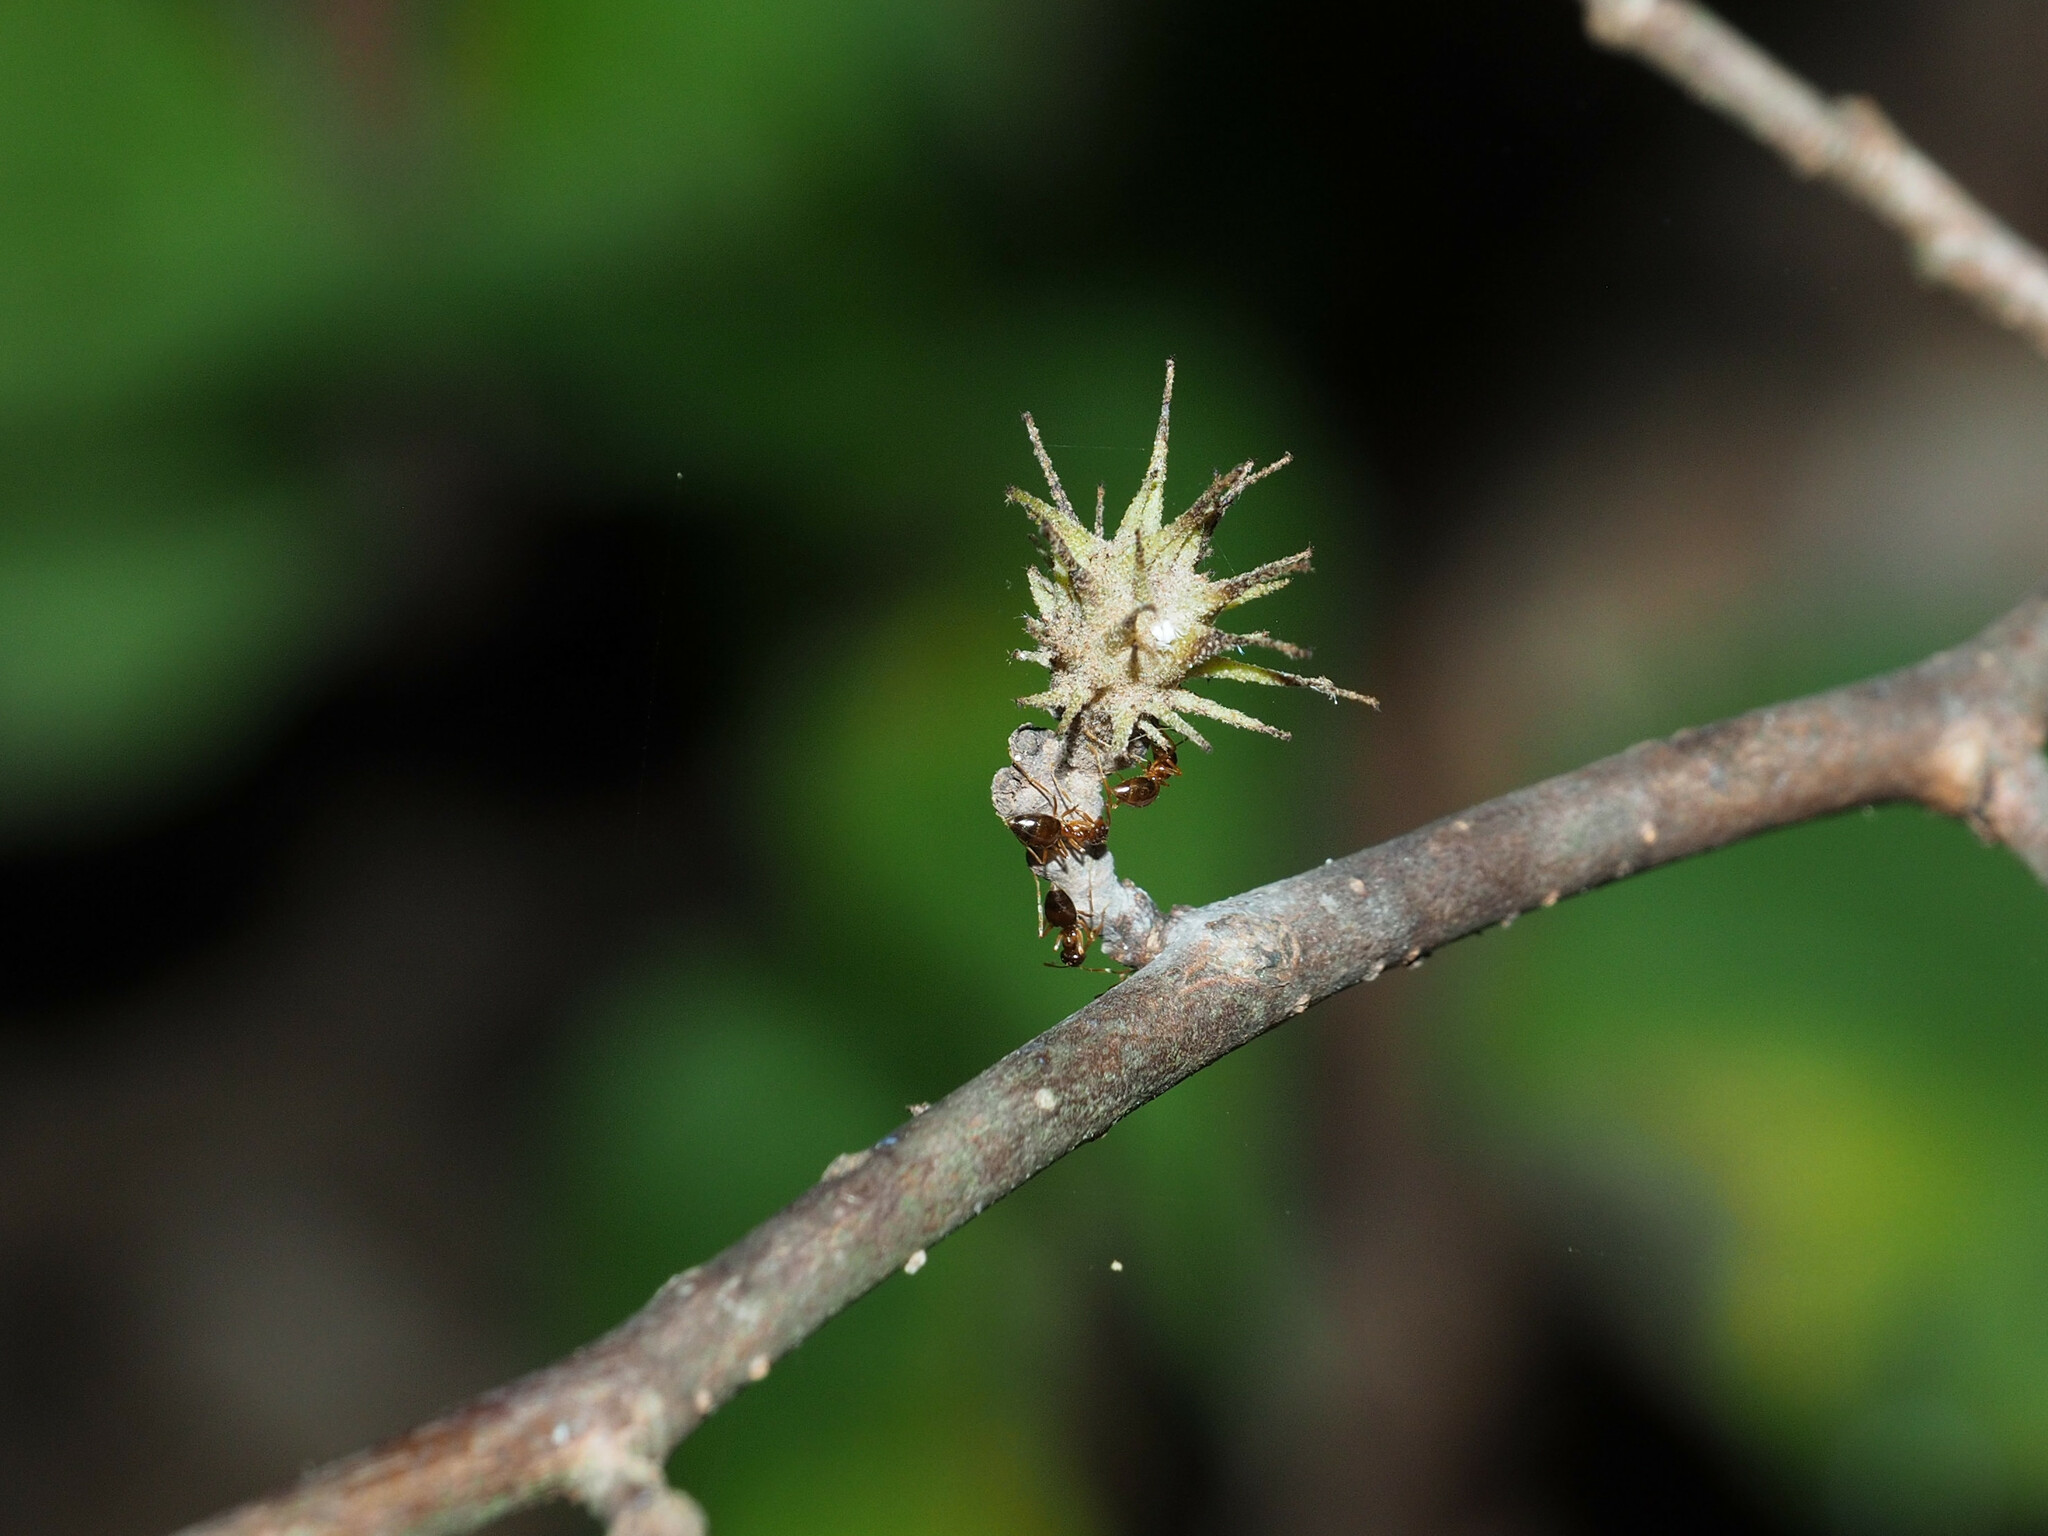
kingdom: Animalia
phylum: Arthropoda
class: Insecta
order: Hemiptera
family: Aphididae
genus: Hamamelistes
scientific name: Hamamelistes spinosus
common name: Witch hazel gall aphid
